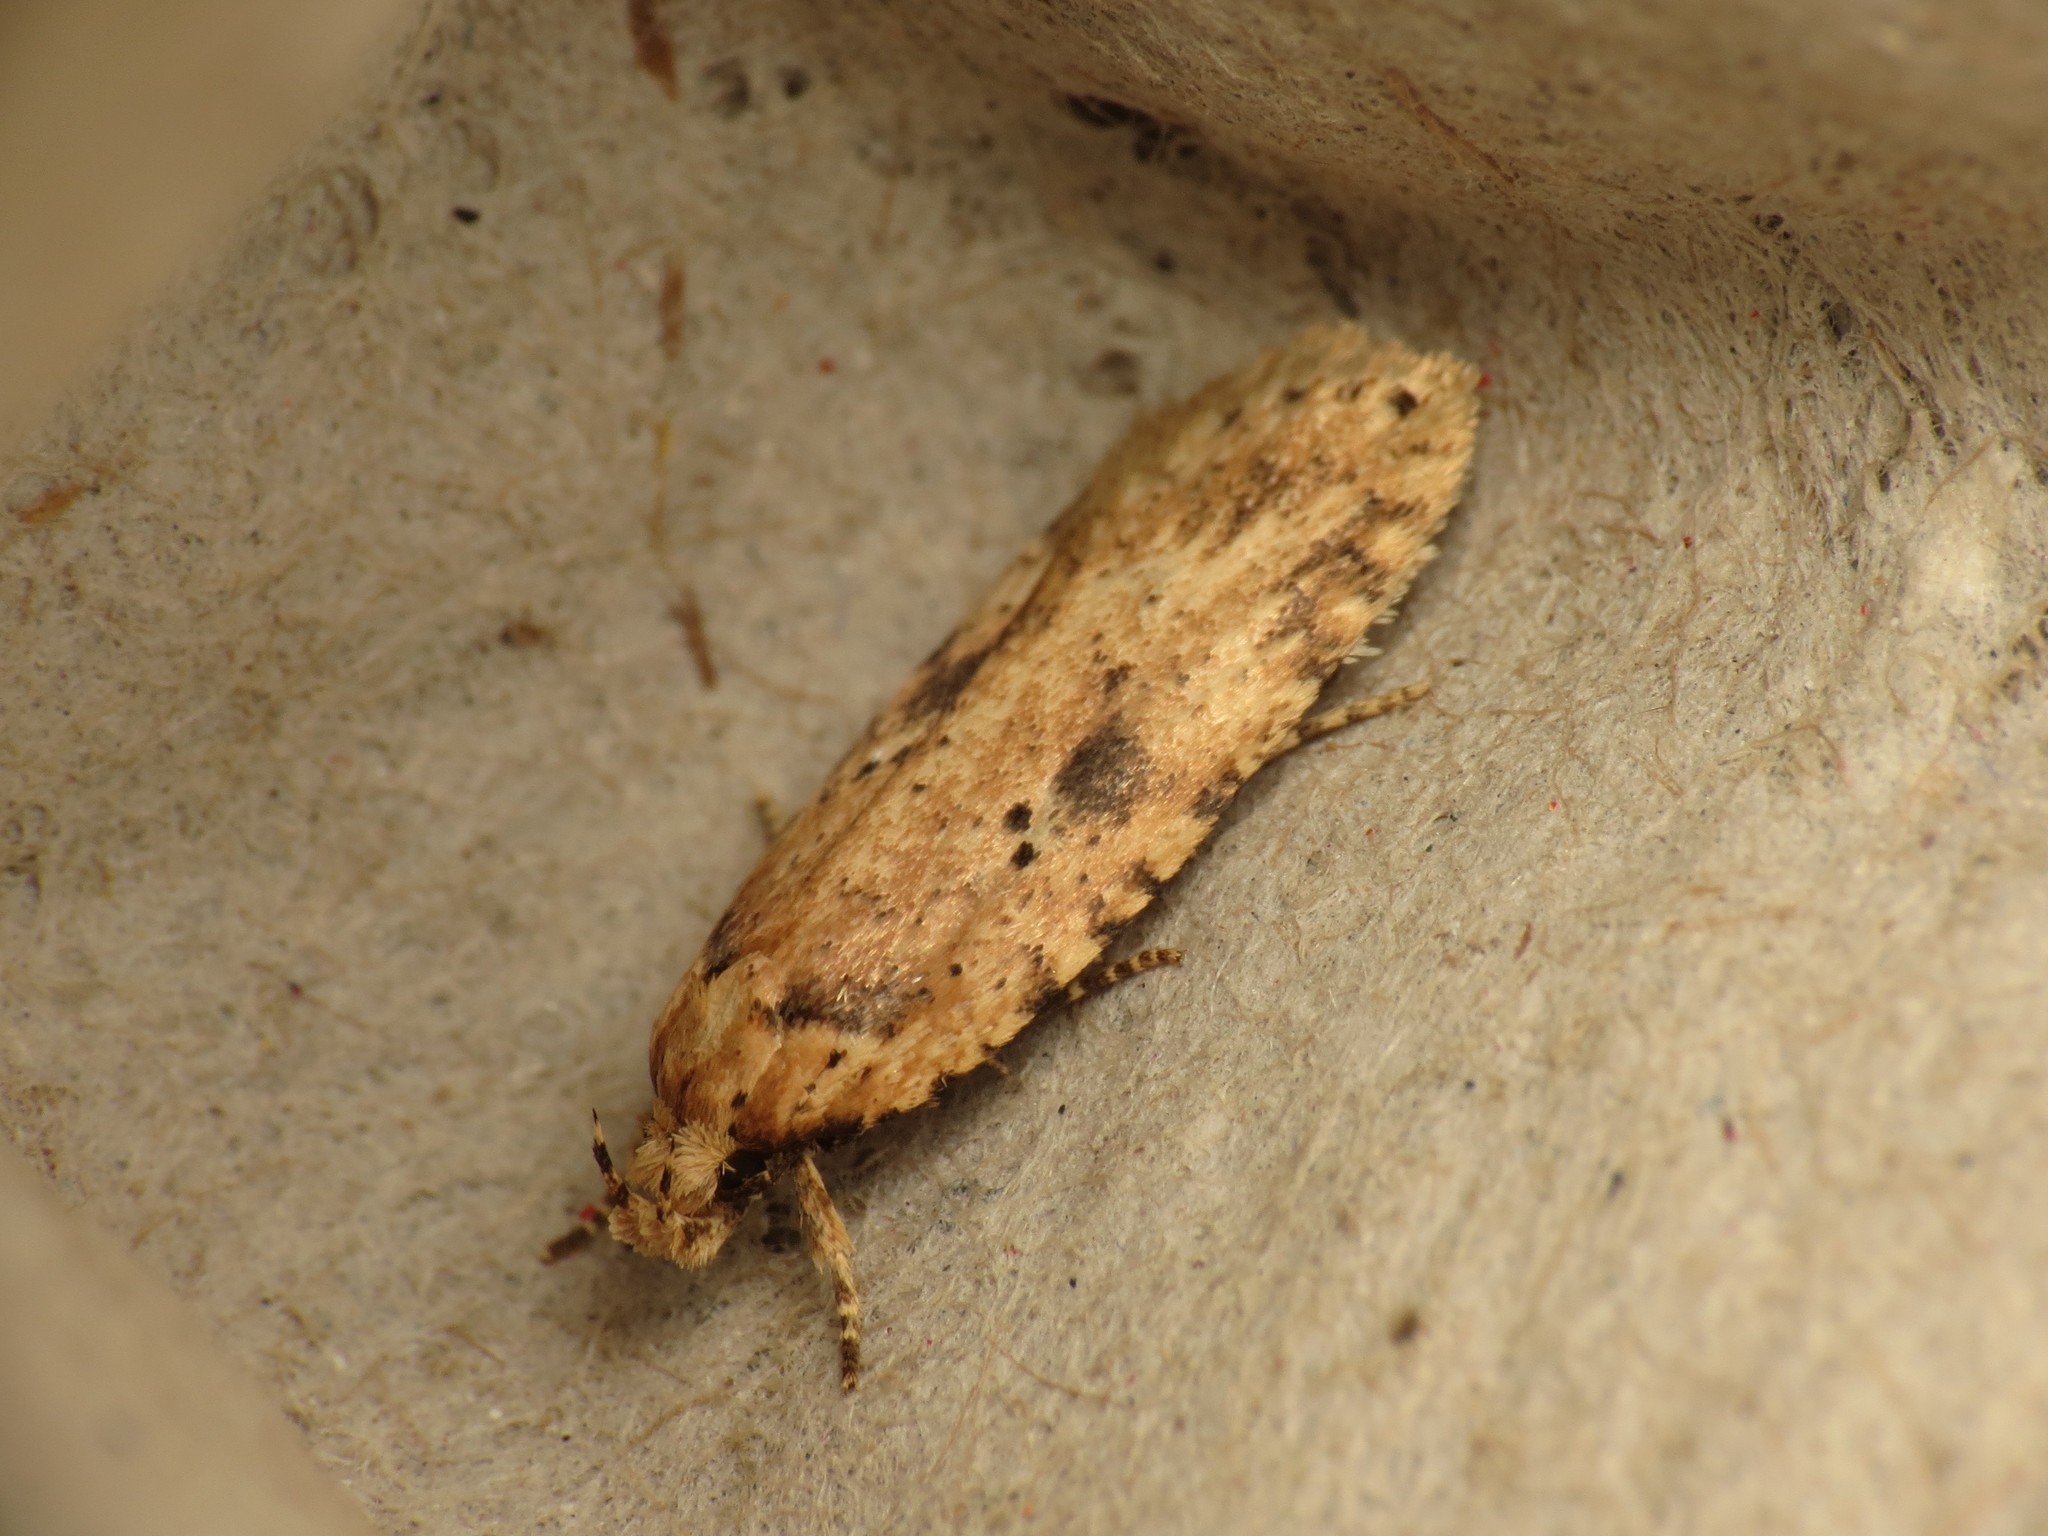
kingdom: Animalia
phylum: Arthropoda
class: Insecta
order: Lepidoptera
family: Depressariidae
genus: Agonopterix
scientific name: Agonopterix arenella
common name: Brindled flat-body
